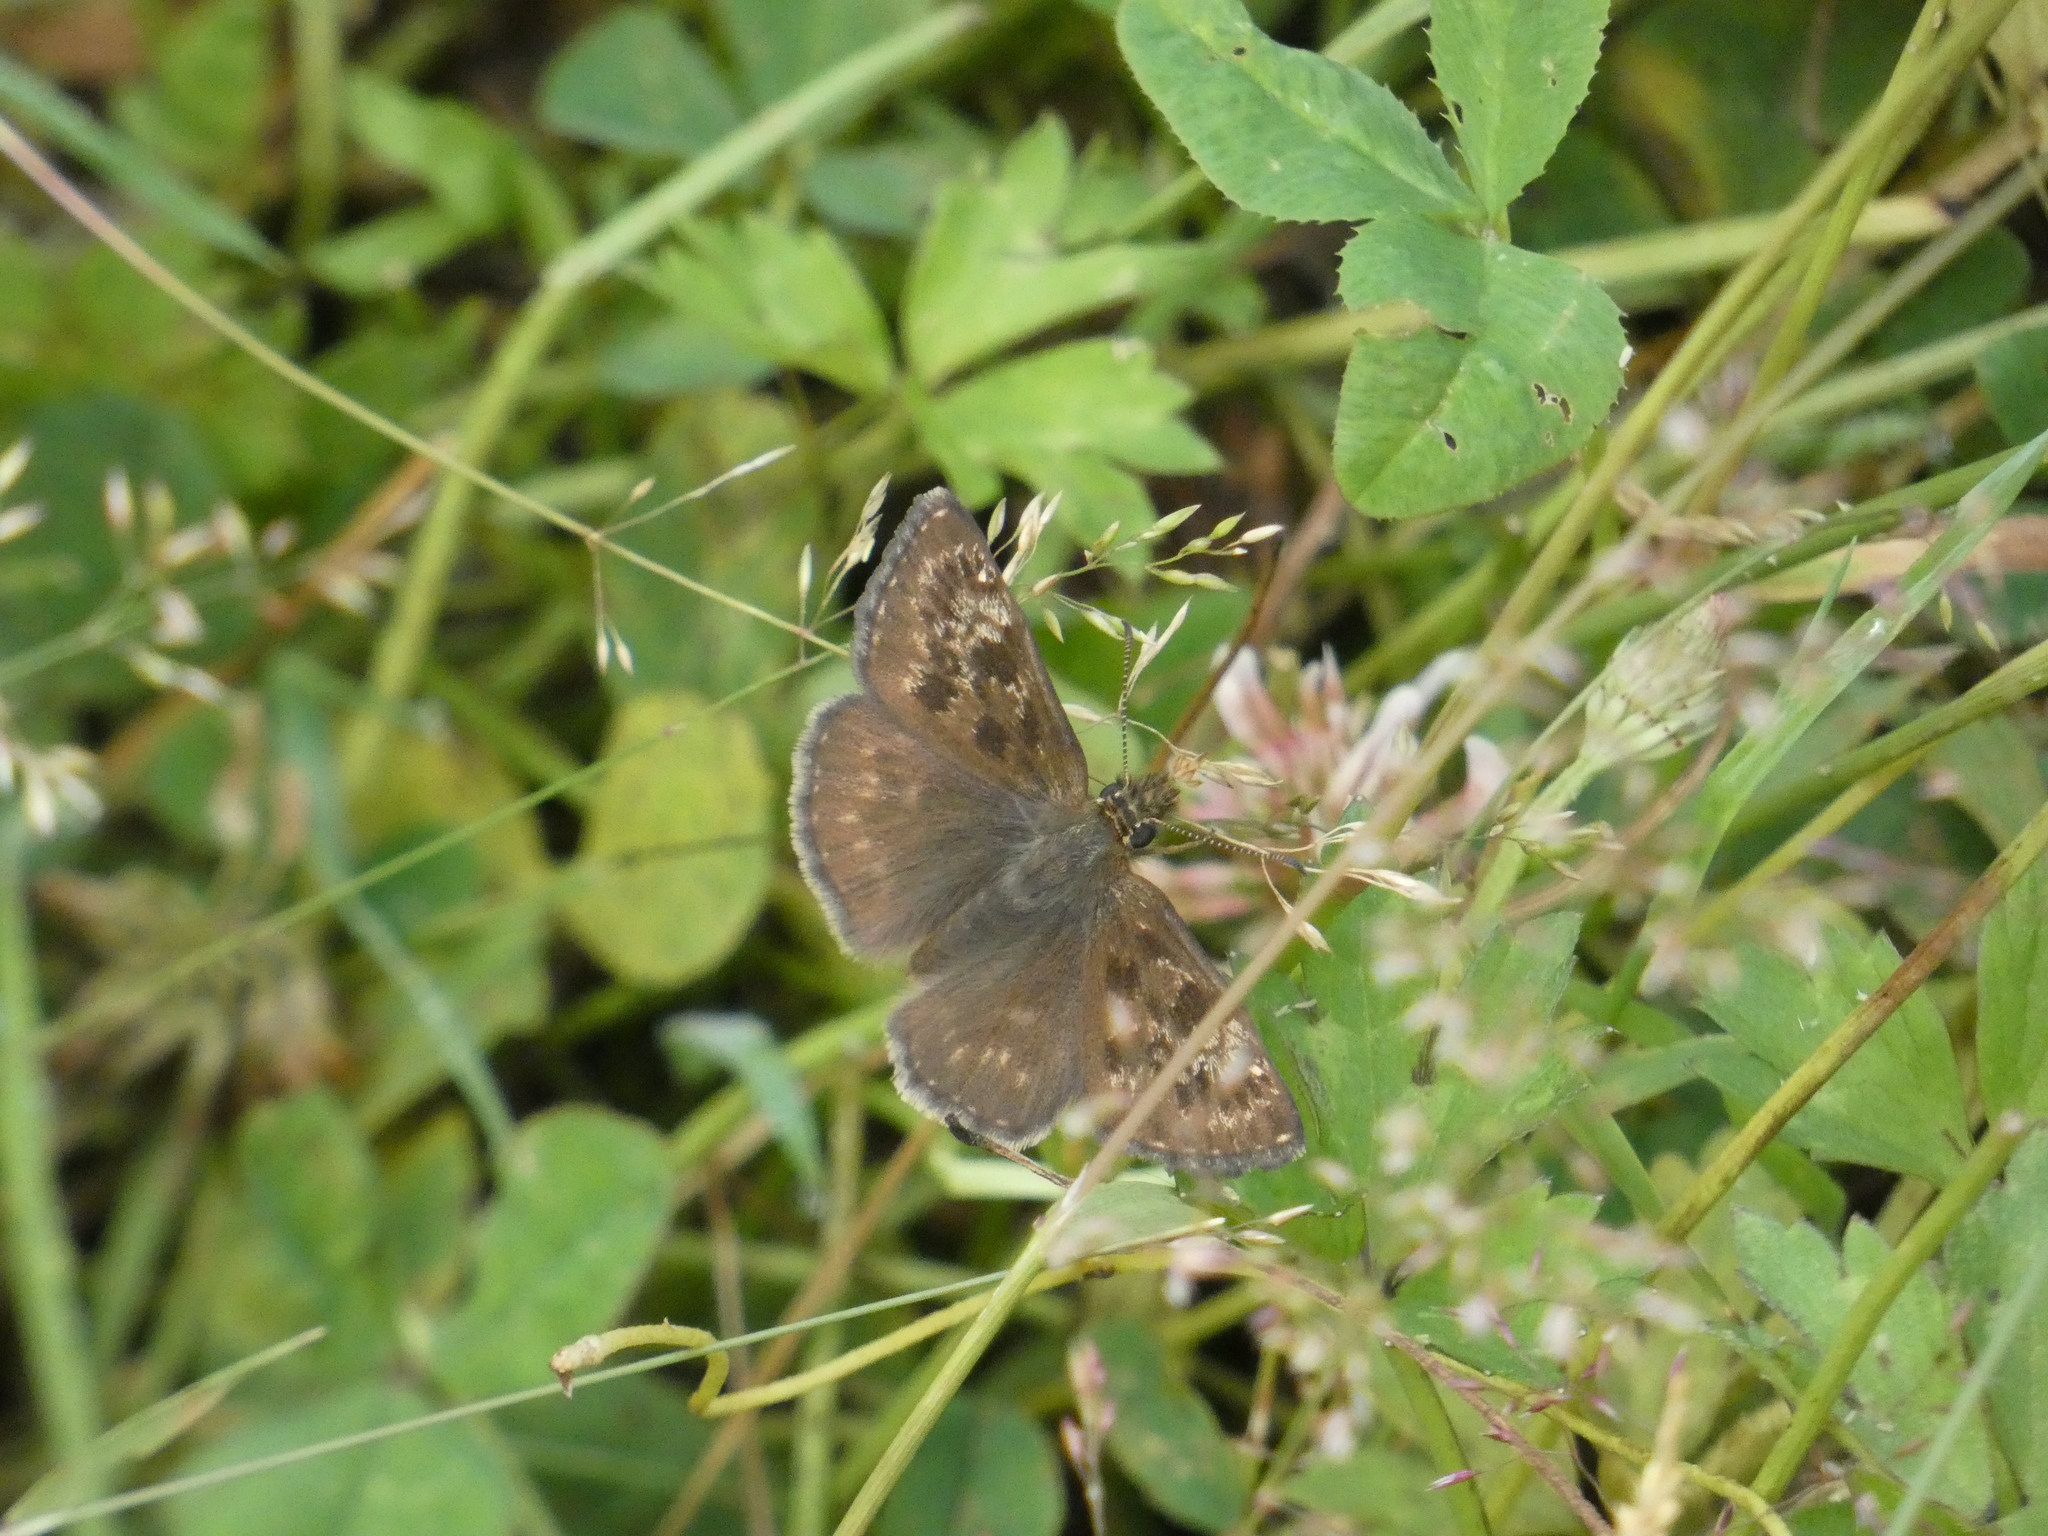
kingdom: Animalia
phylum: Arthropoda
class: Insecta
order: Lepidoptera
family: Hesperiidae
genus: Erynnis
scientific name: Erynnis tages
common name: Dingy skipper
